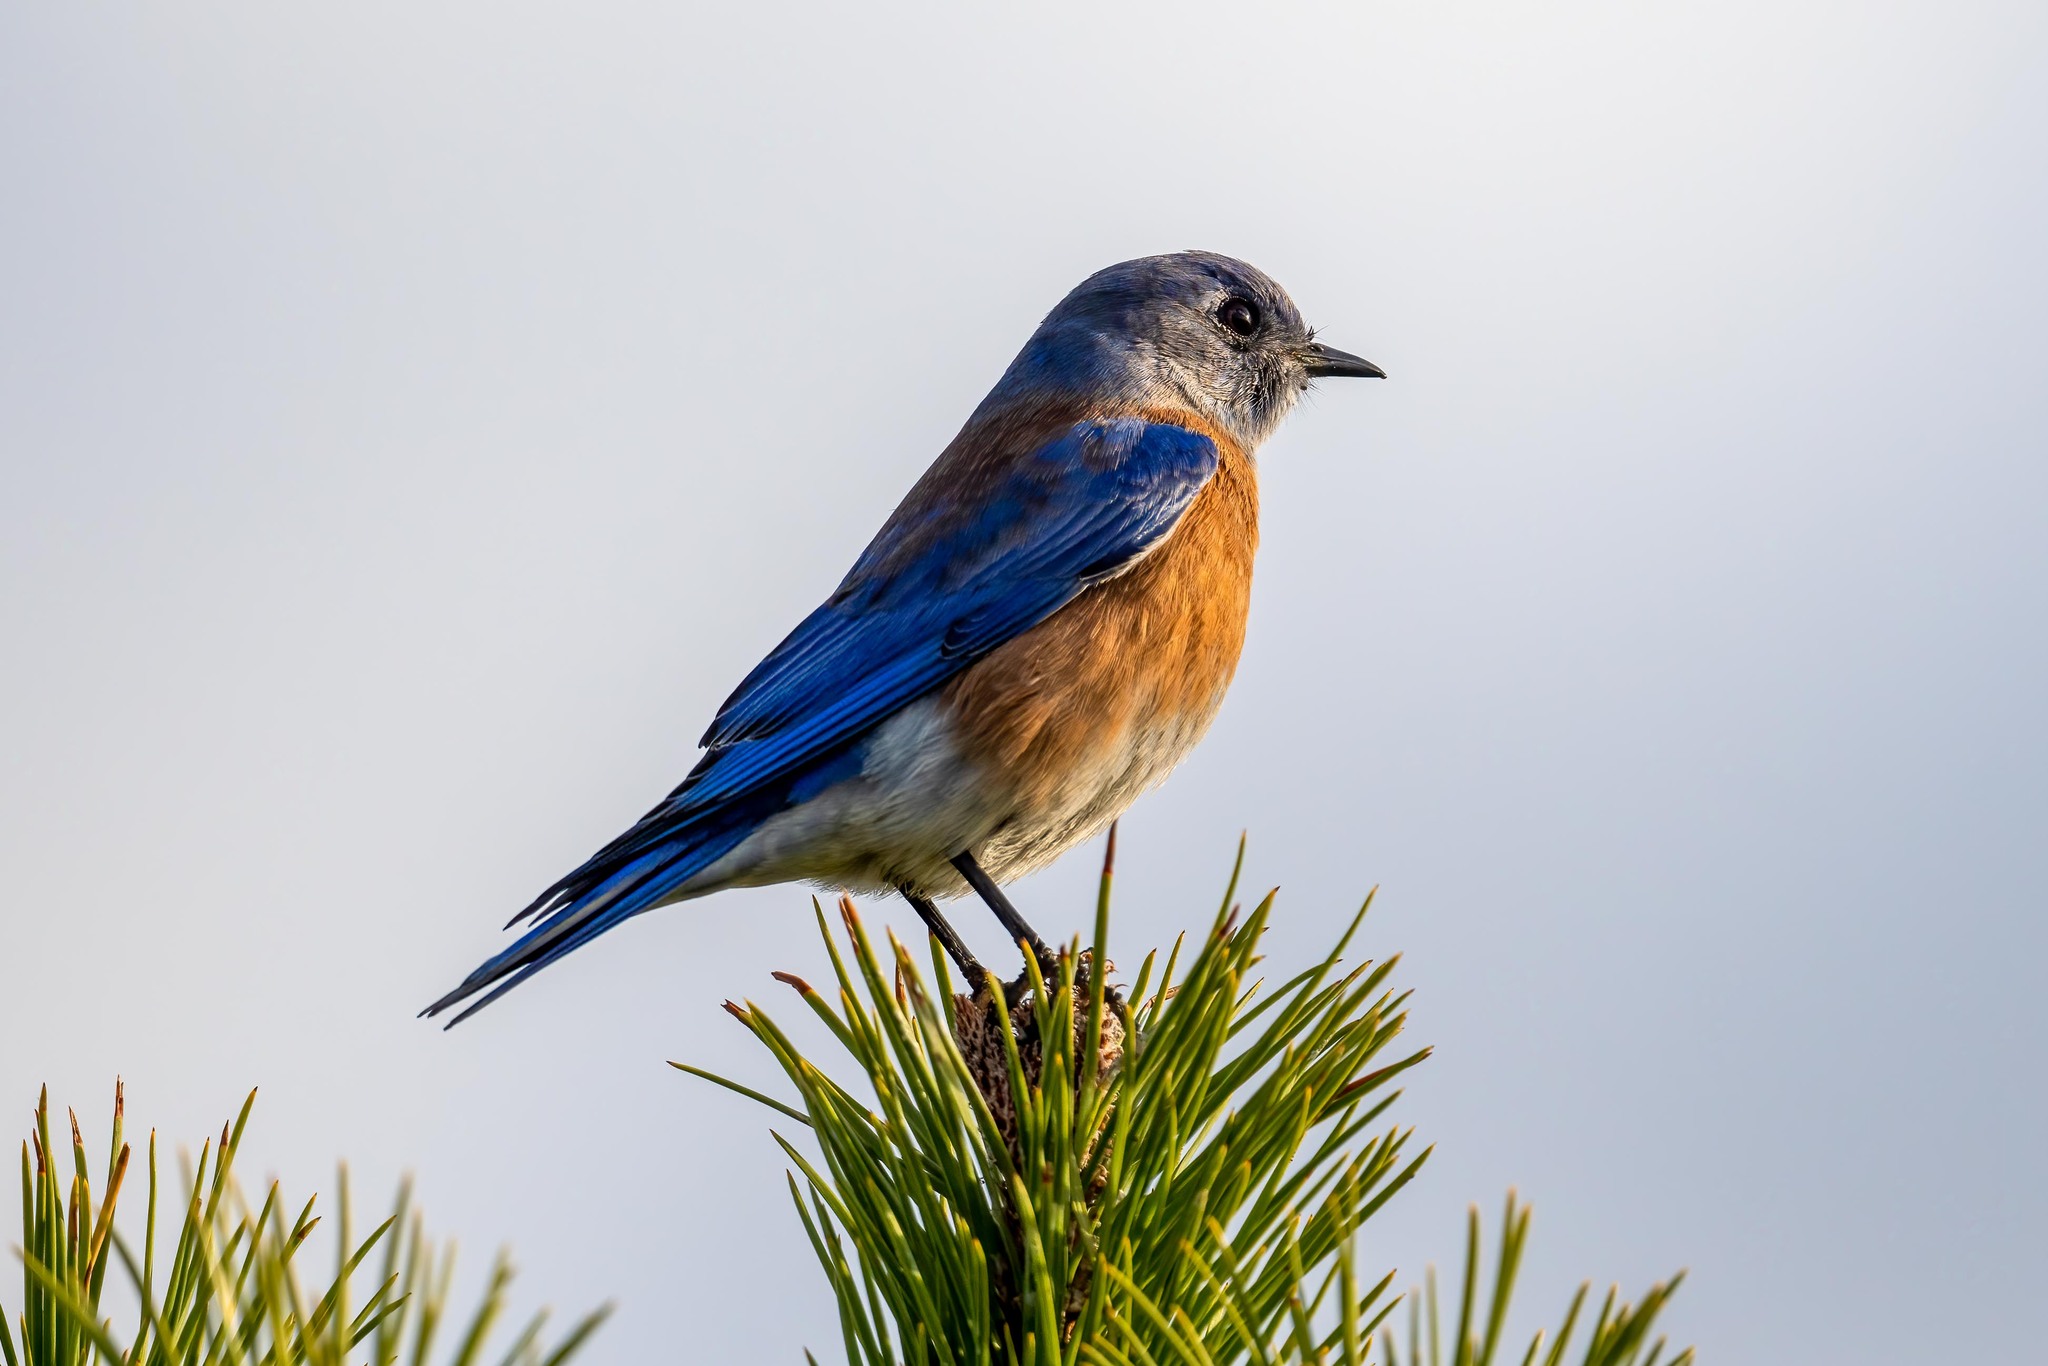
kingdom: Animalia
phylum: Chordata
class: Aves
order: Passeriformes
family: Turdidae
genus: Sialia
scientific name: Sialia mexicana
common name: Western bluebird
